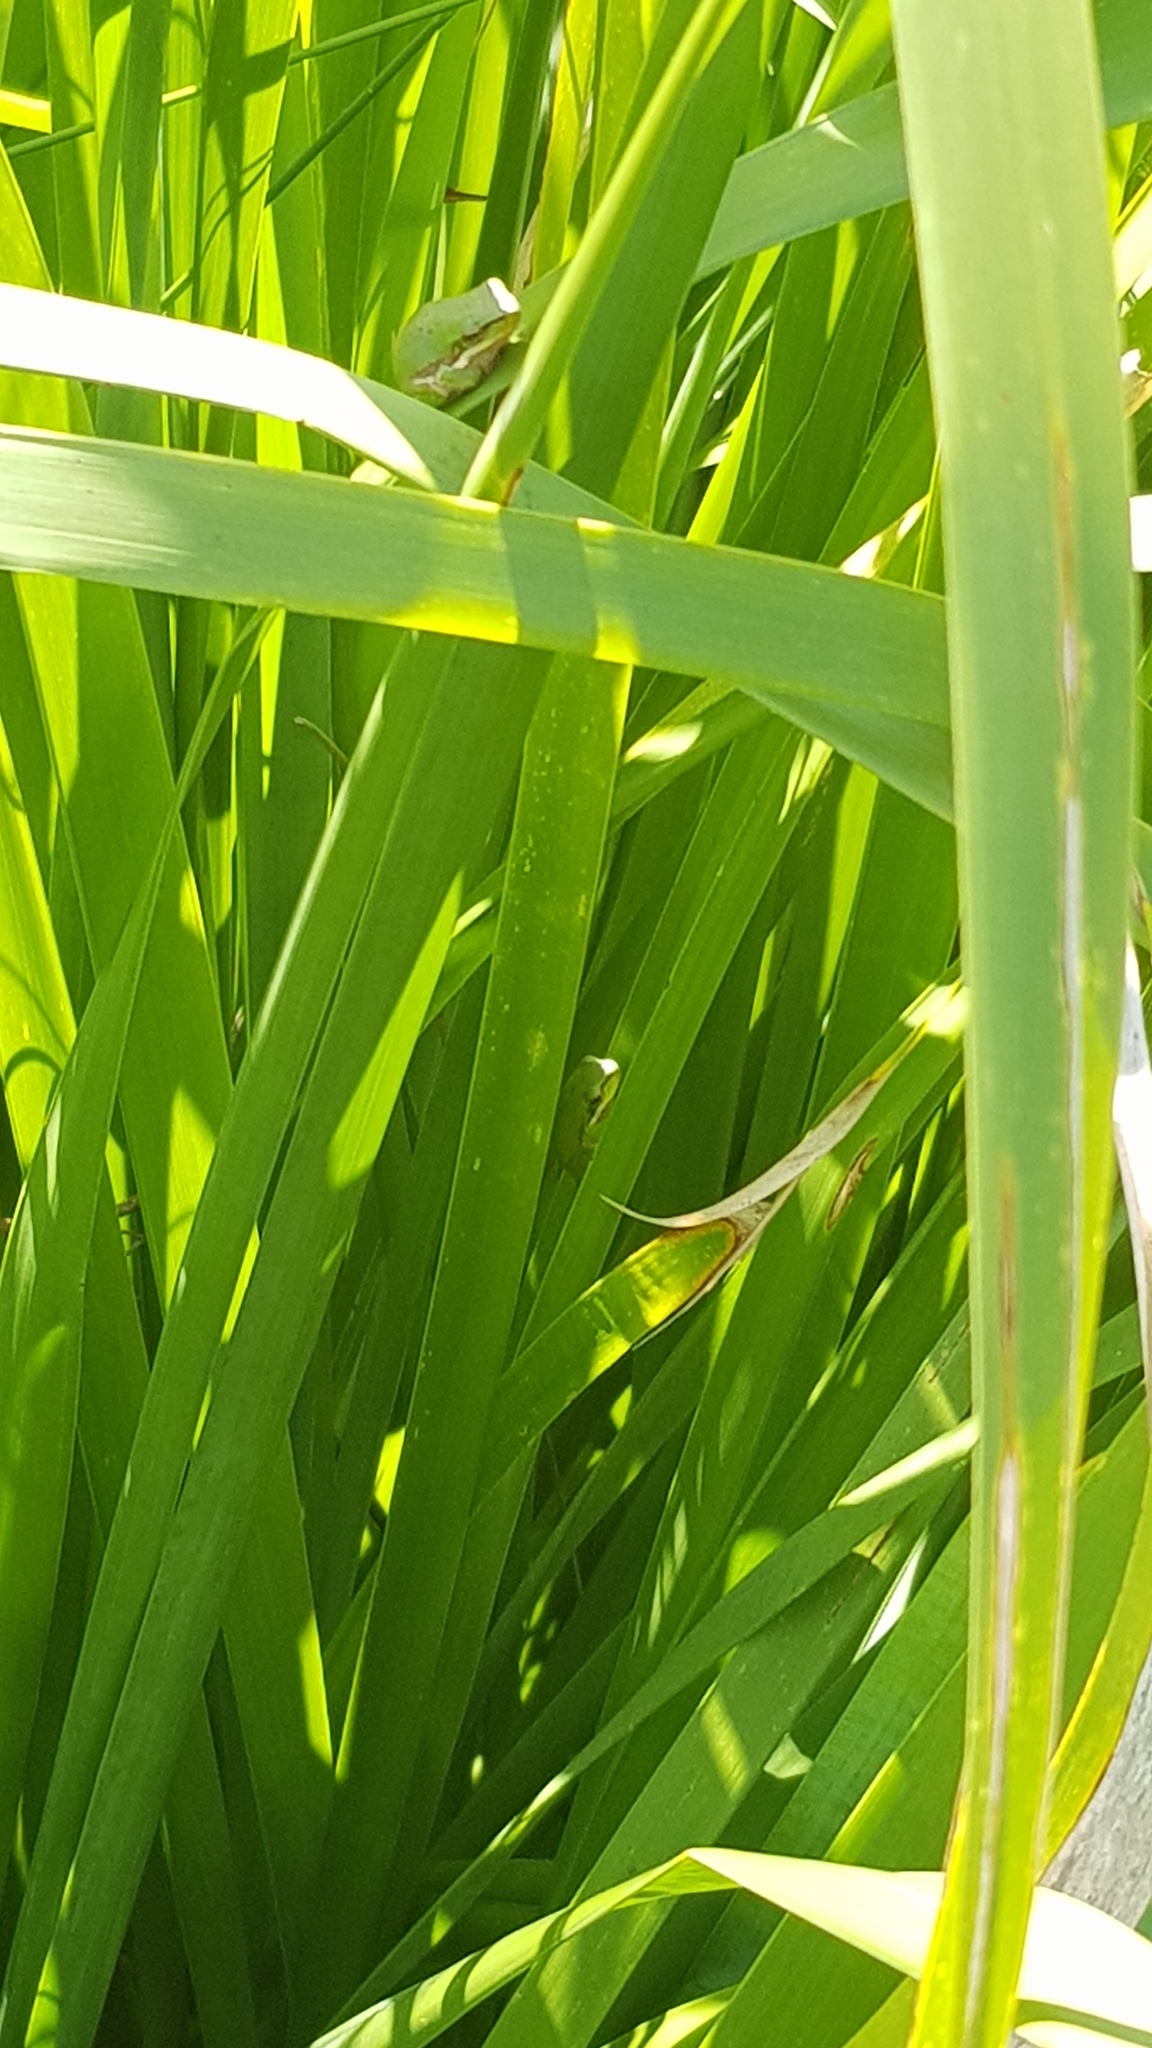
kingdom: Animalia
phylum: Chordata
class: Amphibia
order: Anura
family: Pelodryadidae
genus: Litoria
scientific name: Litoria fallax
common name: Eastern dwarf treefrog
